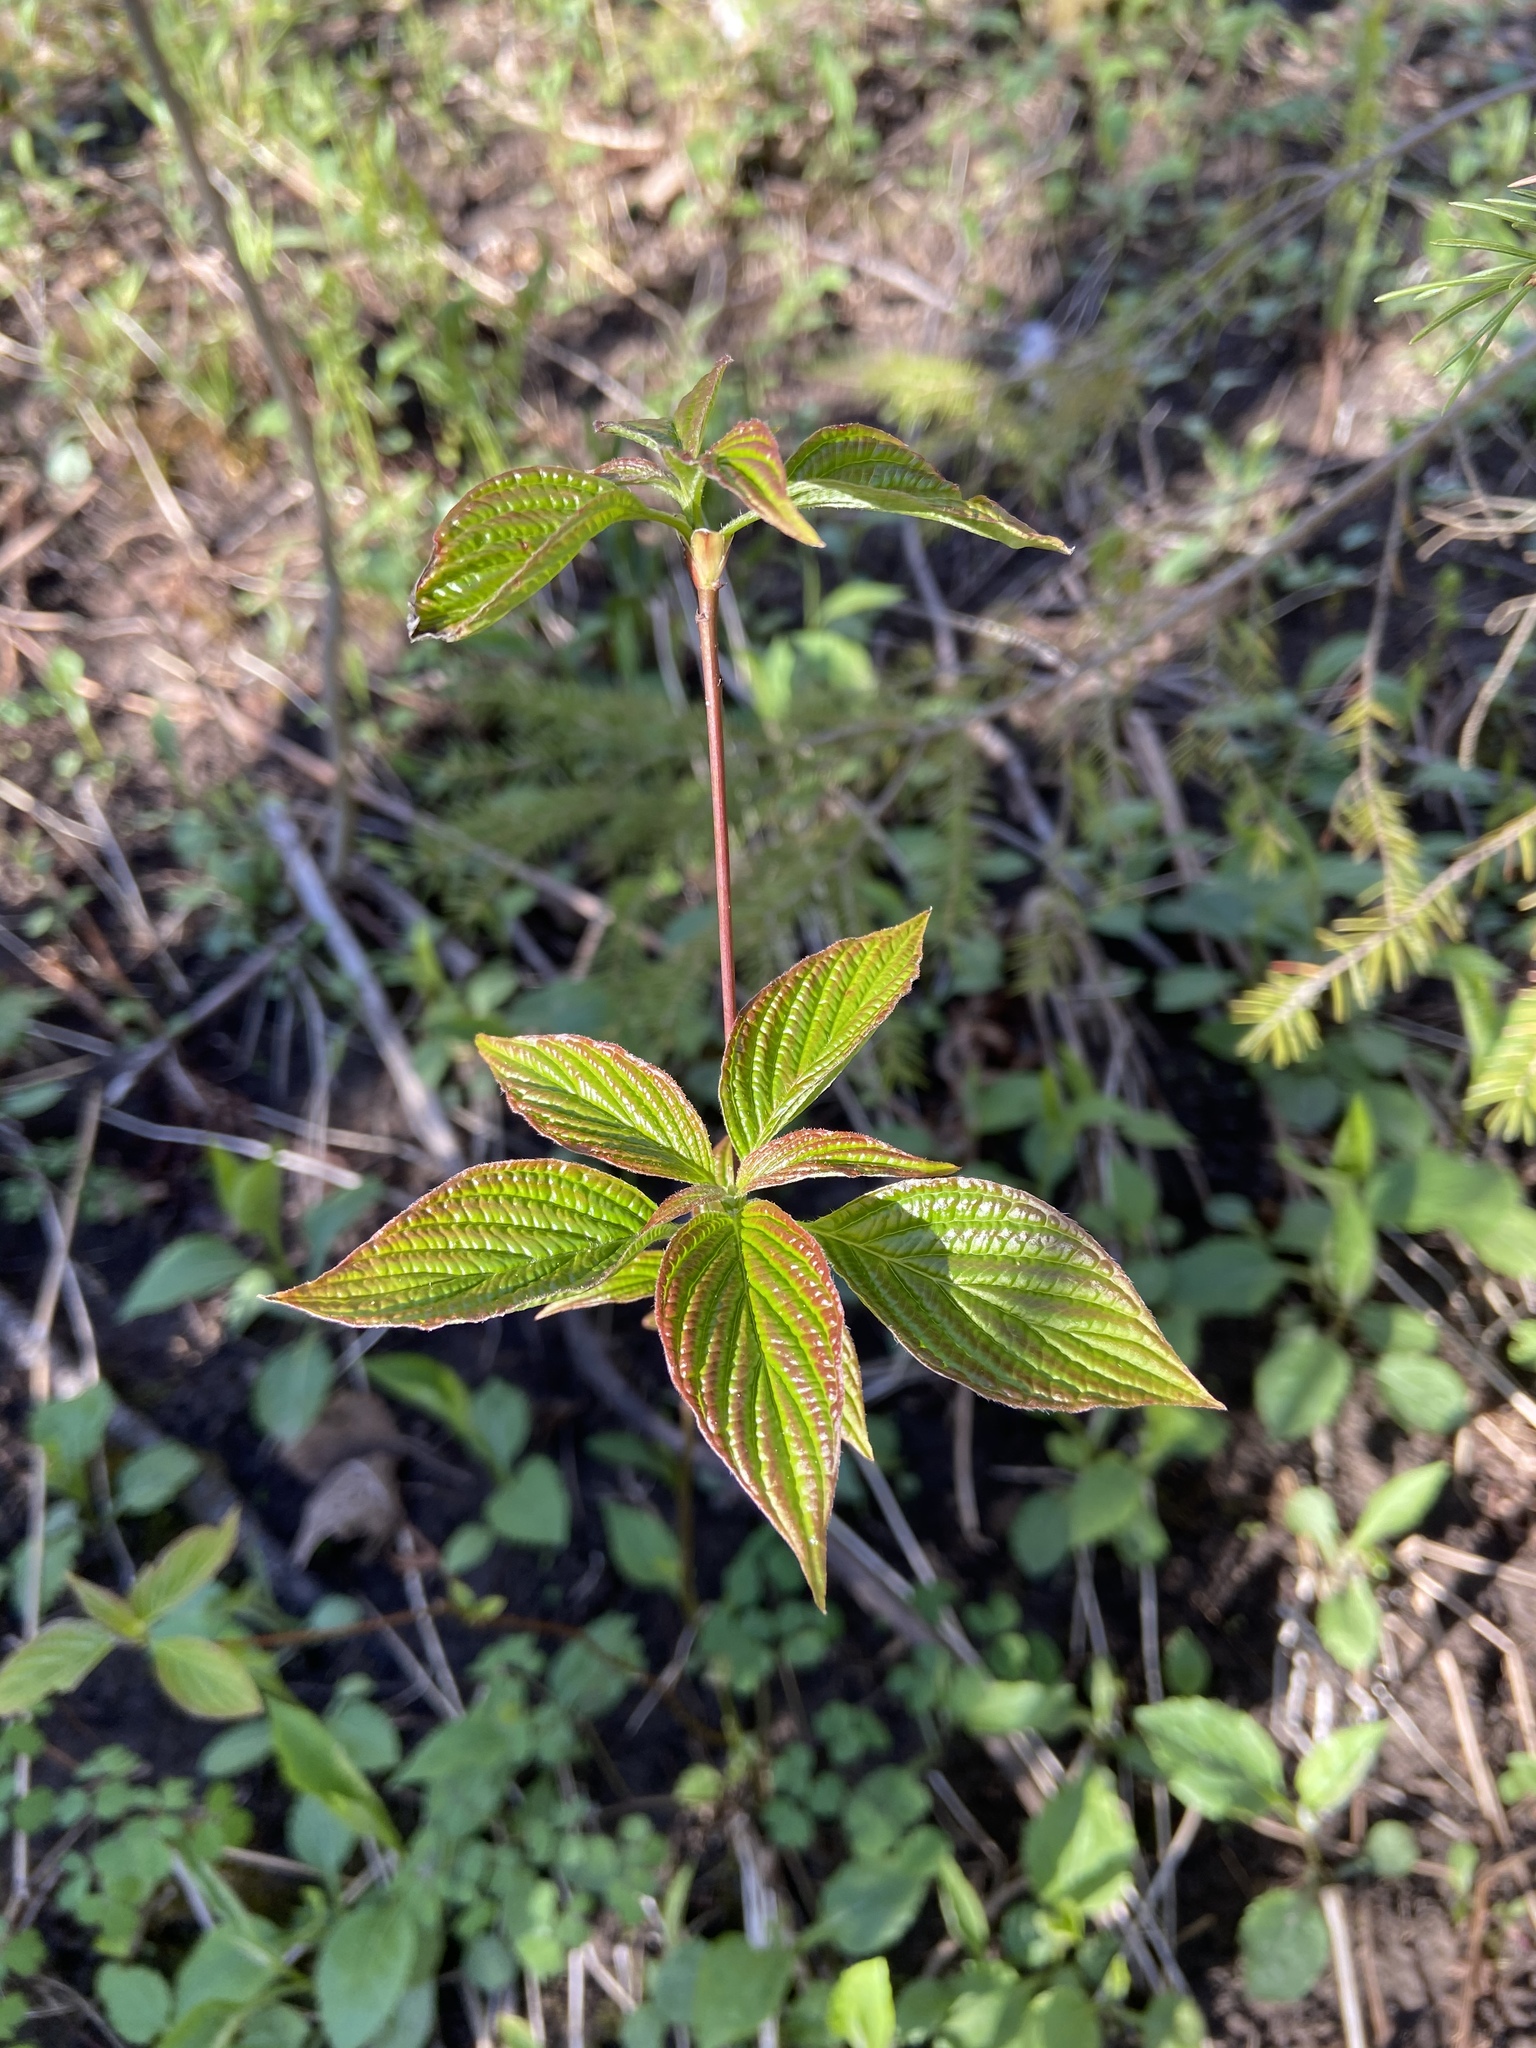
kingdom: Plantae
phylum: Tracheophyta
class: Magnoliopsida
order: Cornales
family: Cornaceae
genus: Cornus
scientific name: Cornus alternifolia
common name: Pagoda dogwood
